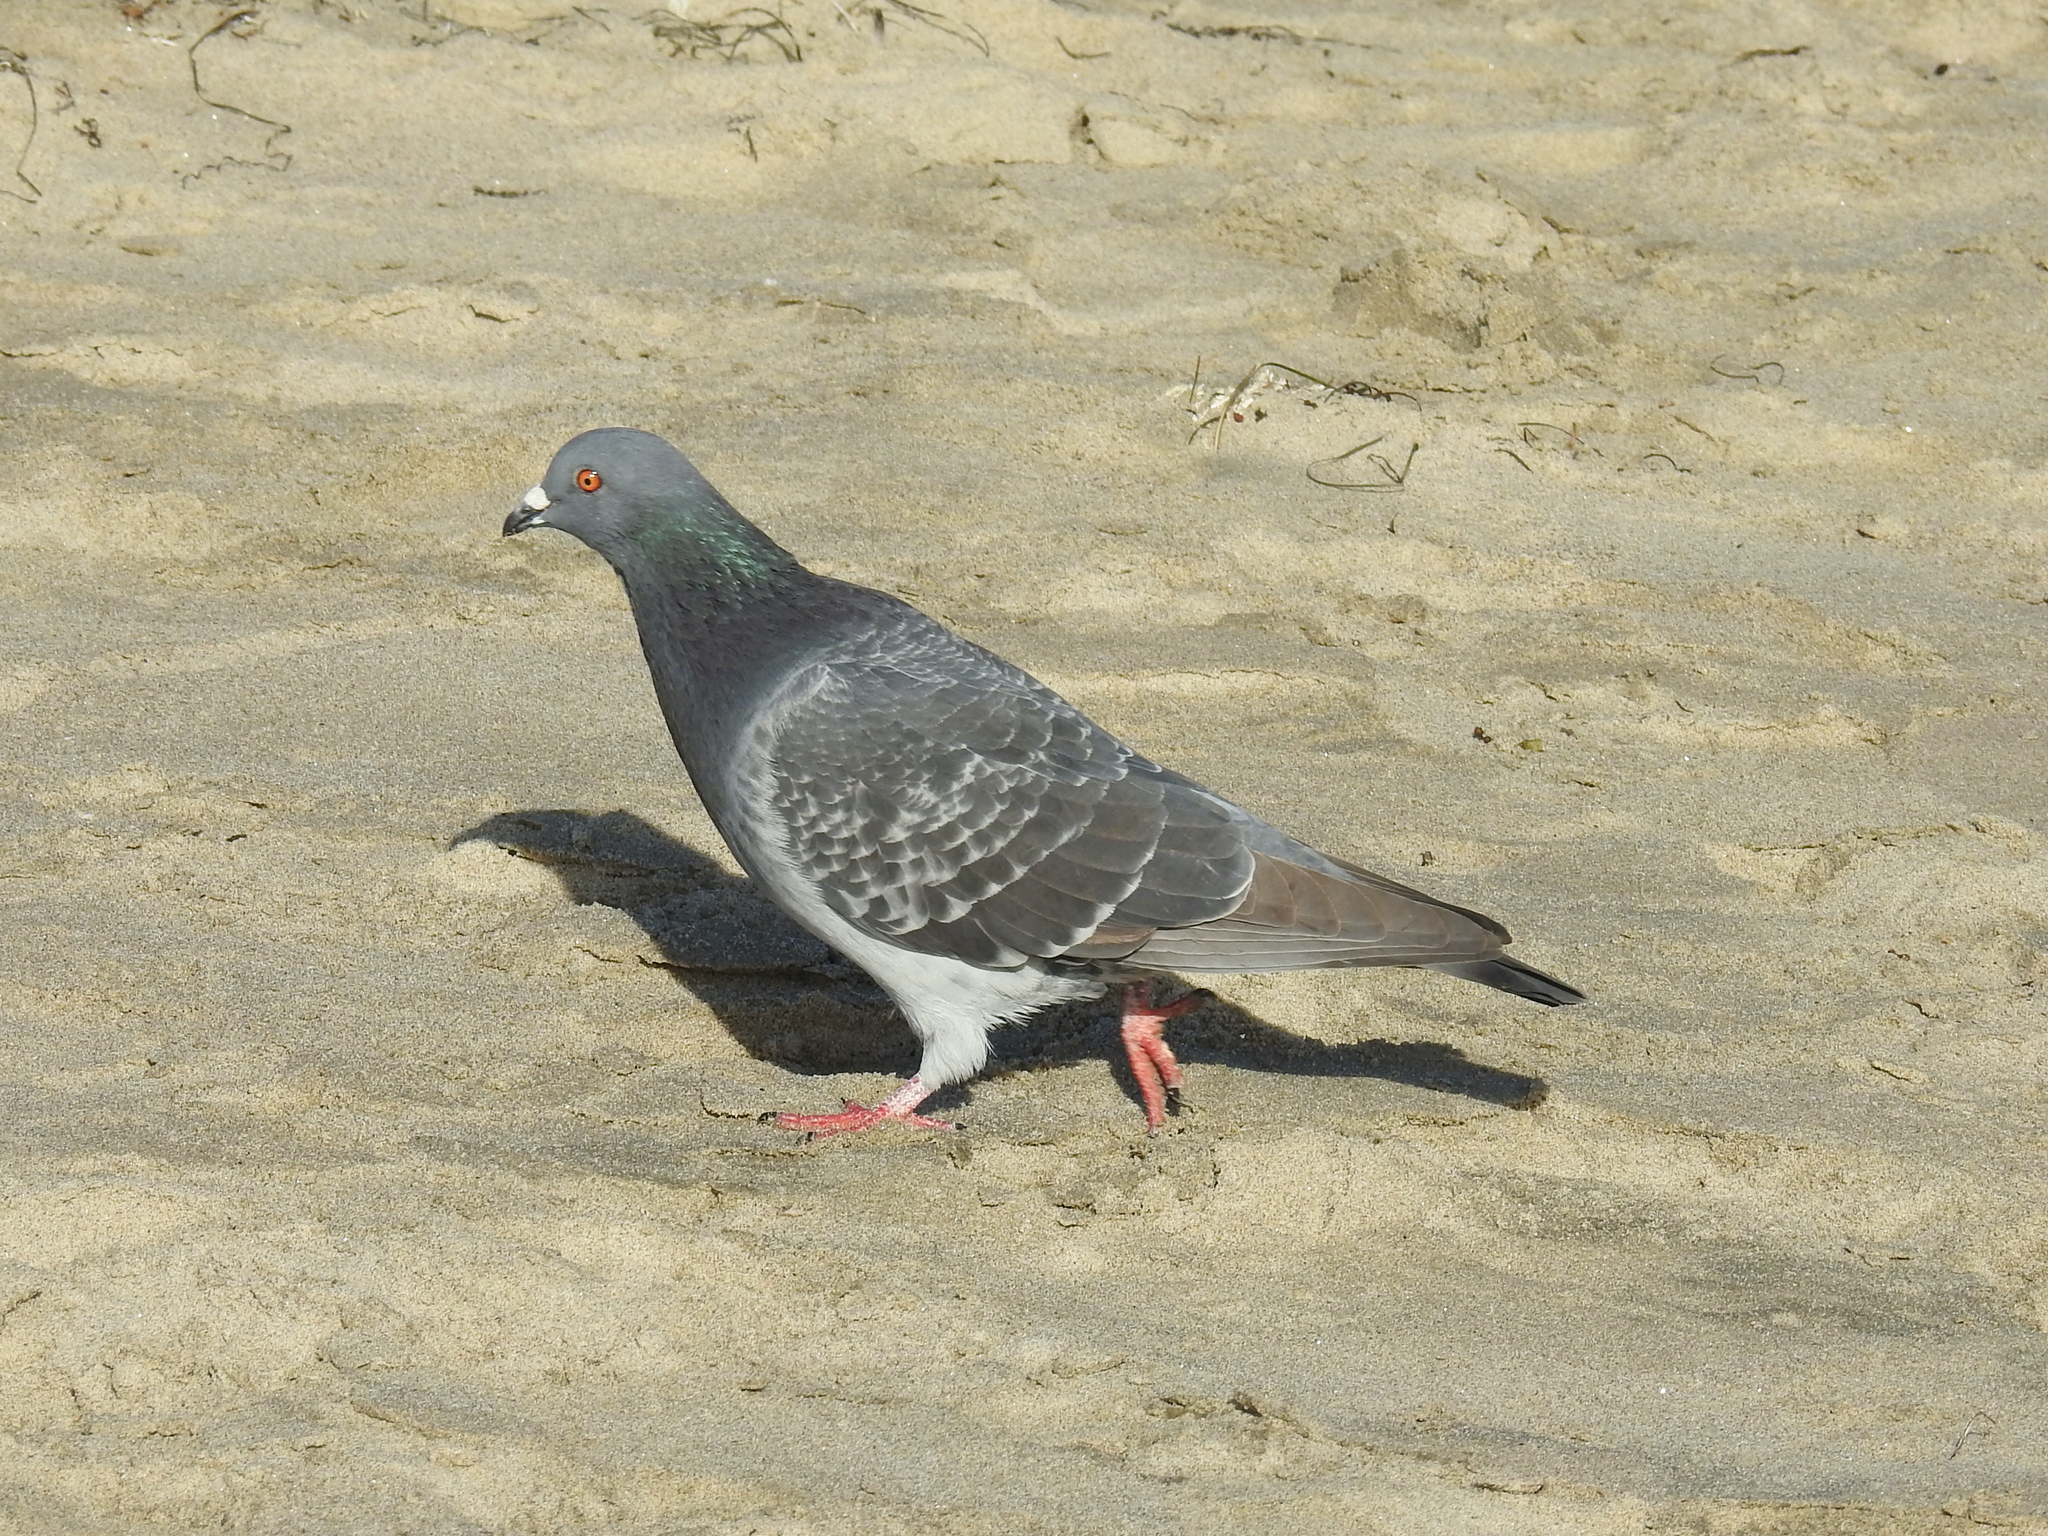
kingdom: Animalia
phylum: Chordata
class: Aves
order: Columbiformes
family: Columbidae
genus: Columba
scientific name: Columba livia
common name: Rock pigeon
